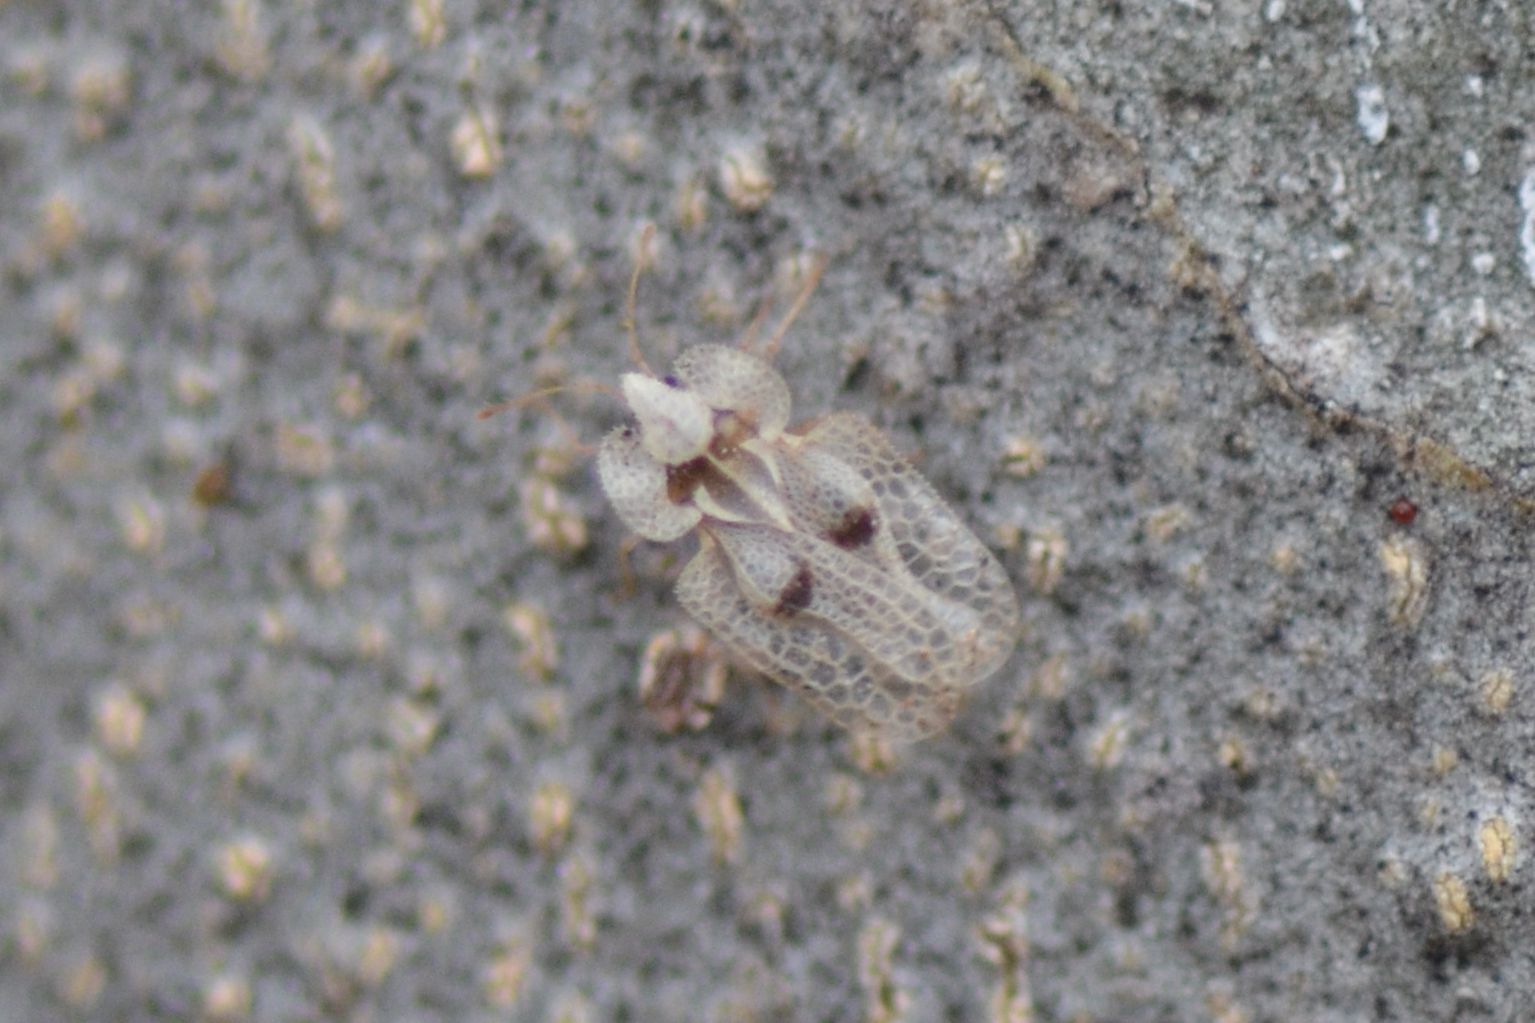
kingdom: Animalia
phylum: Arthropoda
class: Insecta
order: Hemiptera
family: Tingidae
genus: Corythucha
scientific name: Corythucha ciliata
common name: Sycamore lace bug
